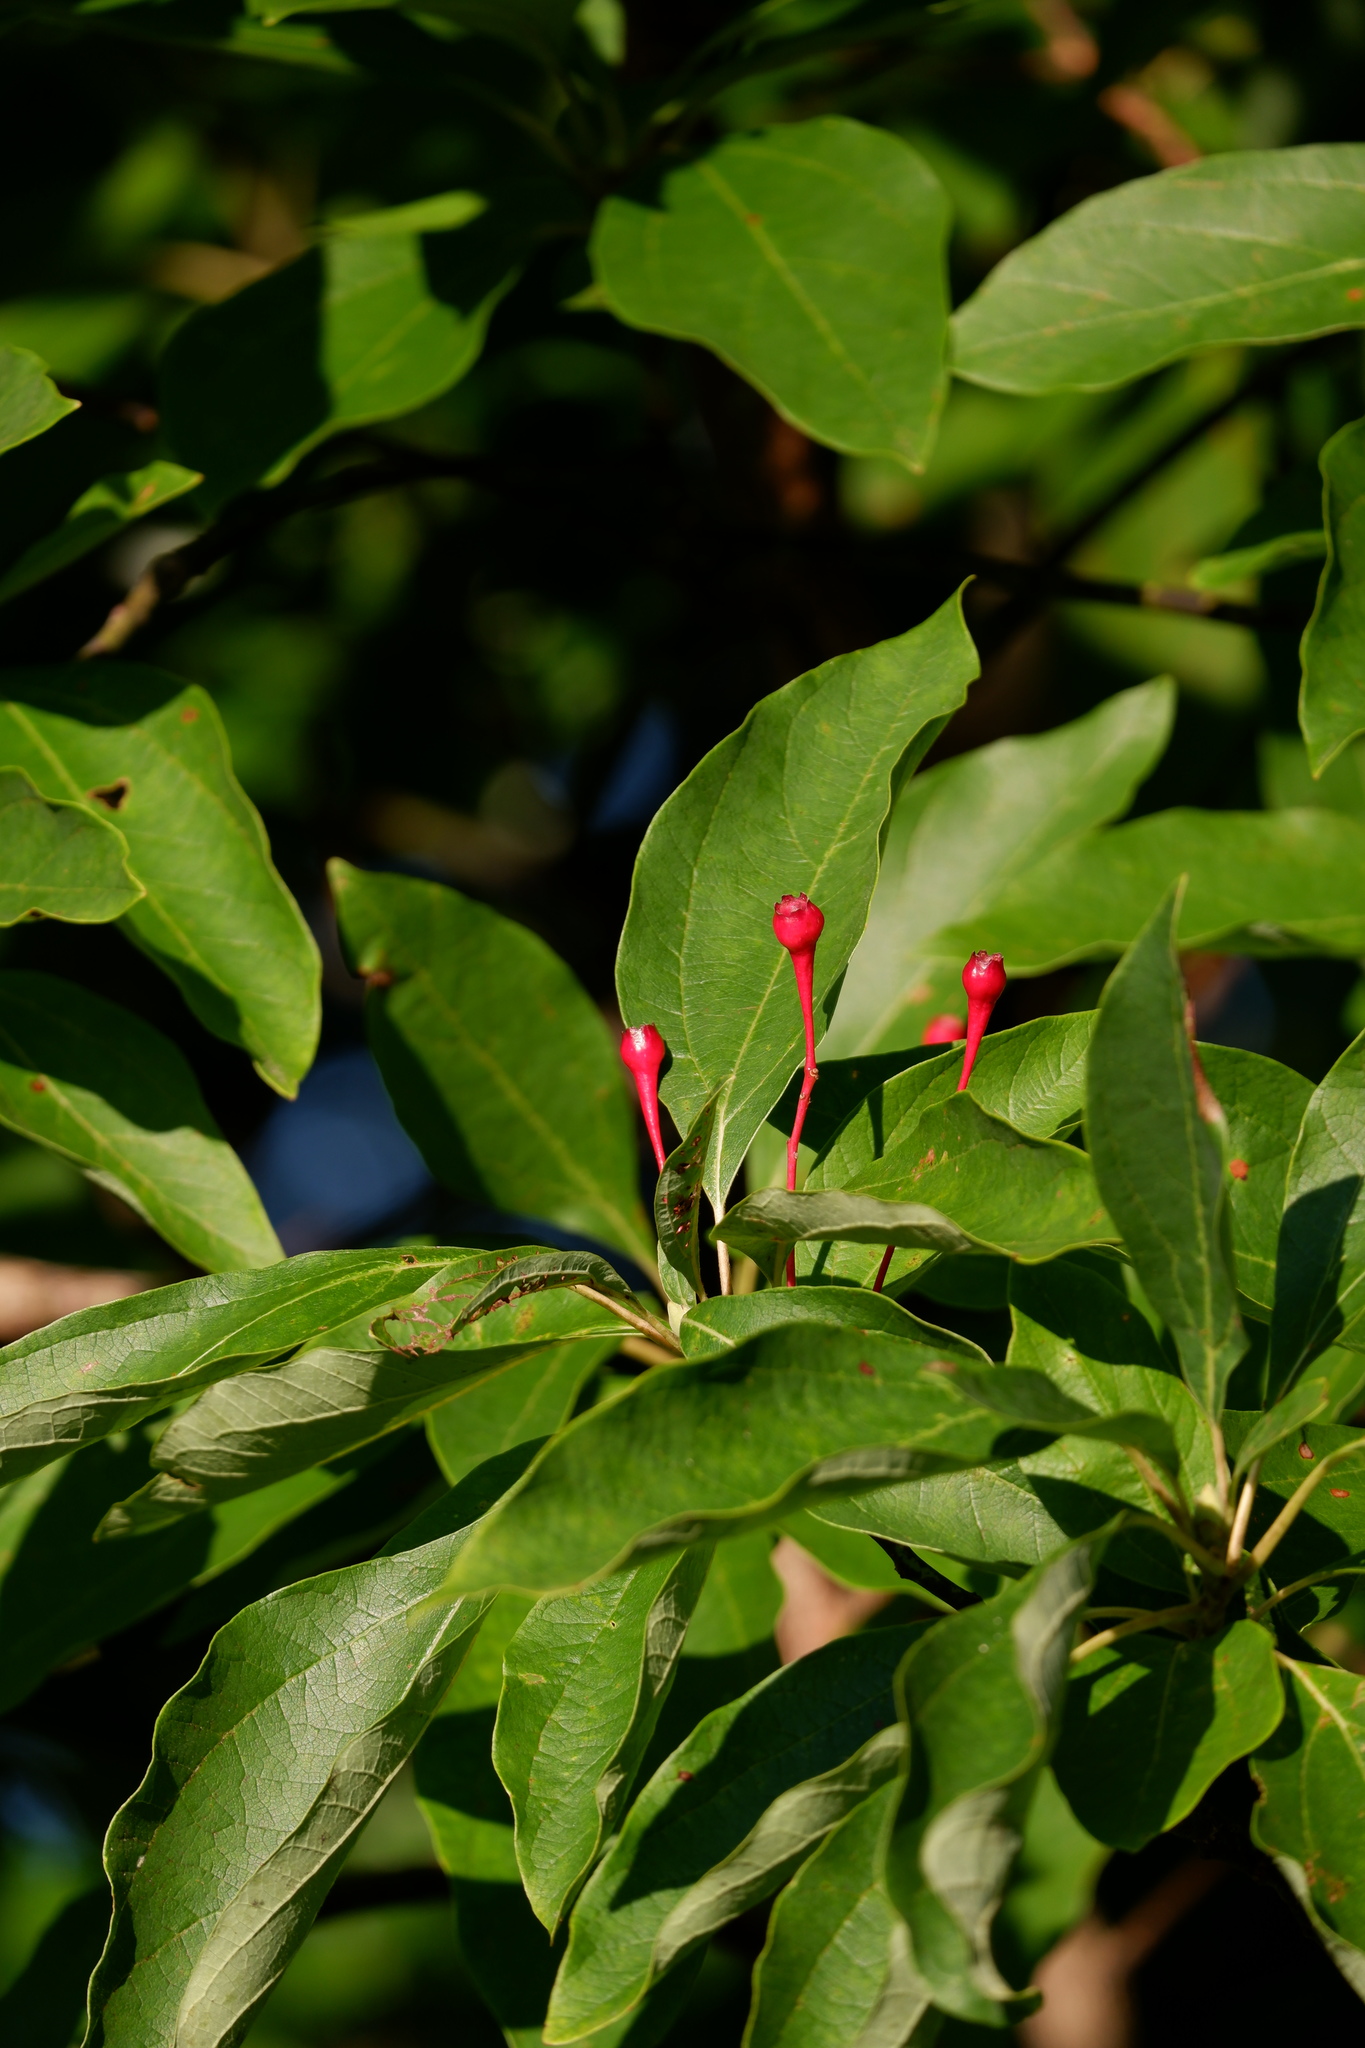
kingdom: Plantae
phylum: Tracheophyta
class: Magnoliopsida
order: Laurales
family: Lauraceae
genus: Sassafras
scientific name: Sassafras albidum
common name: Sassafras
